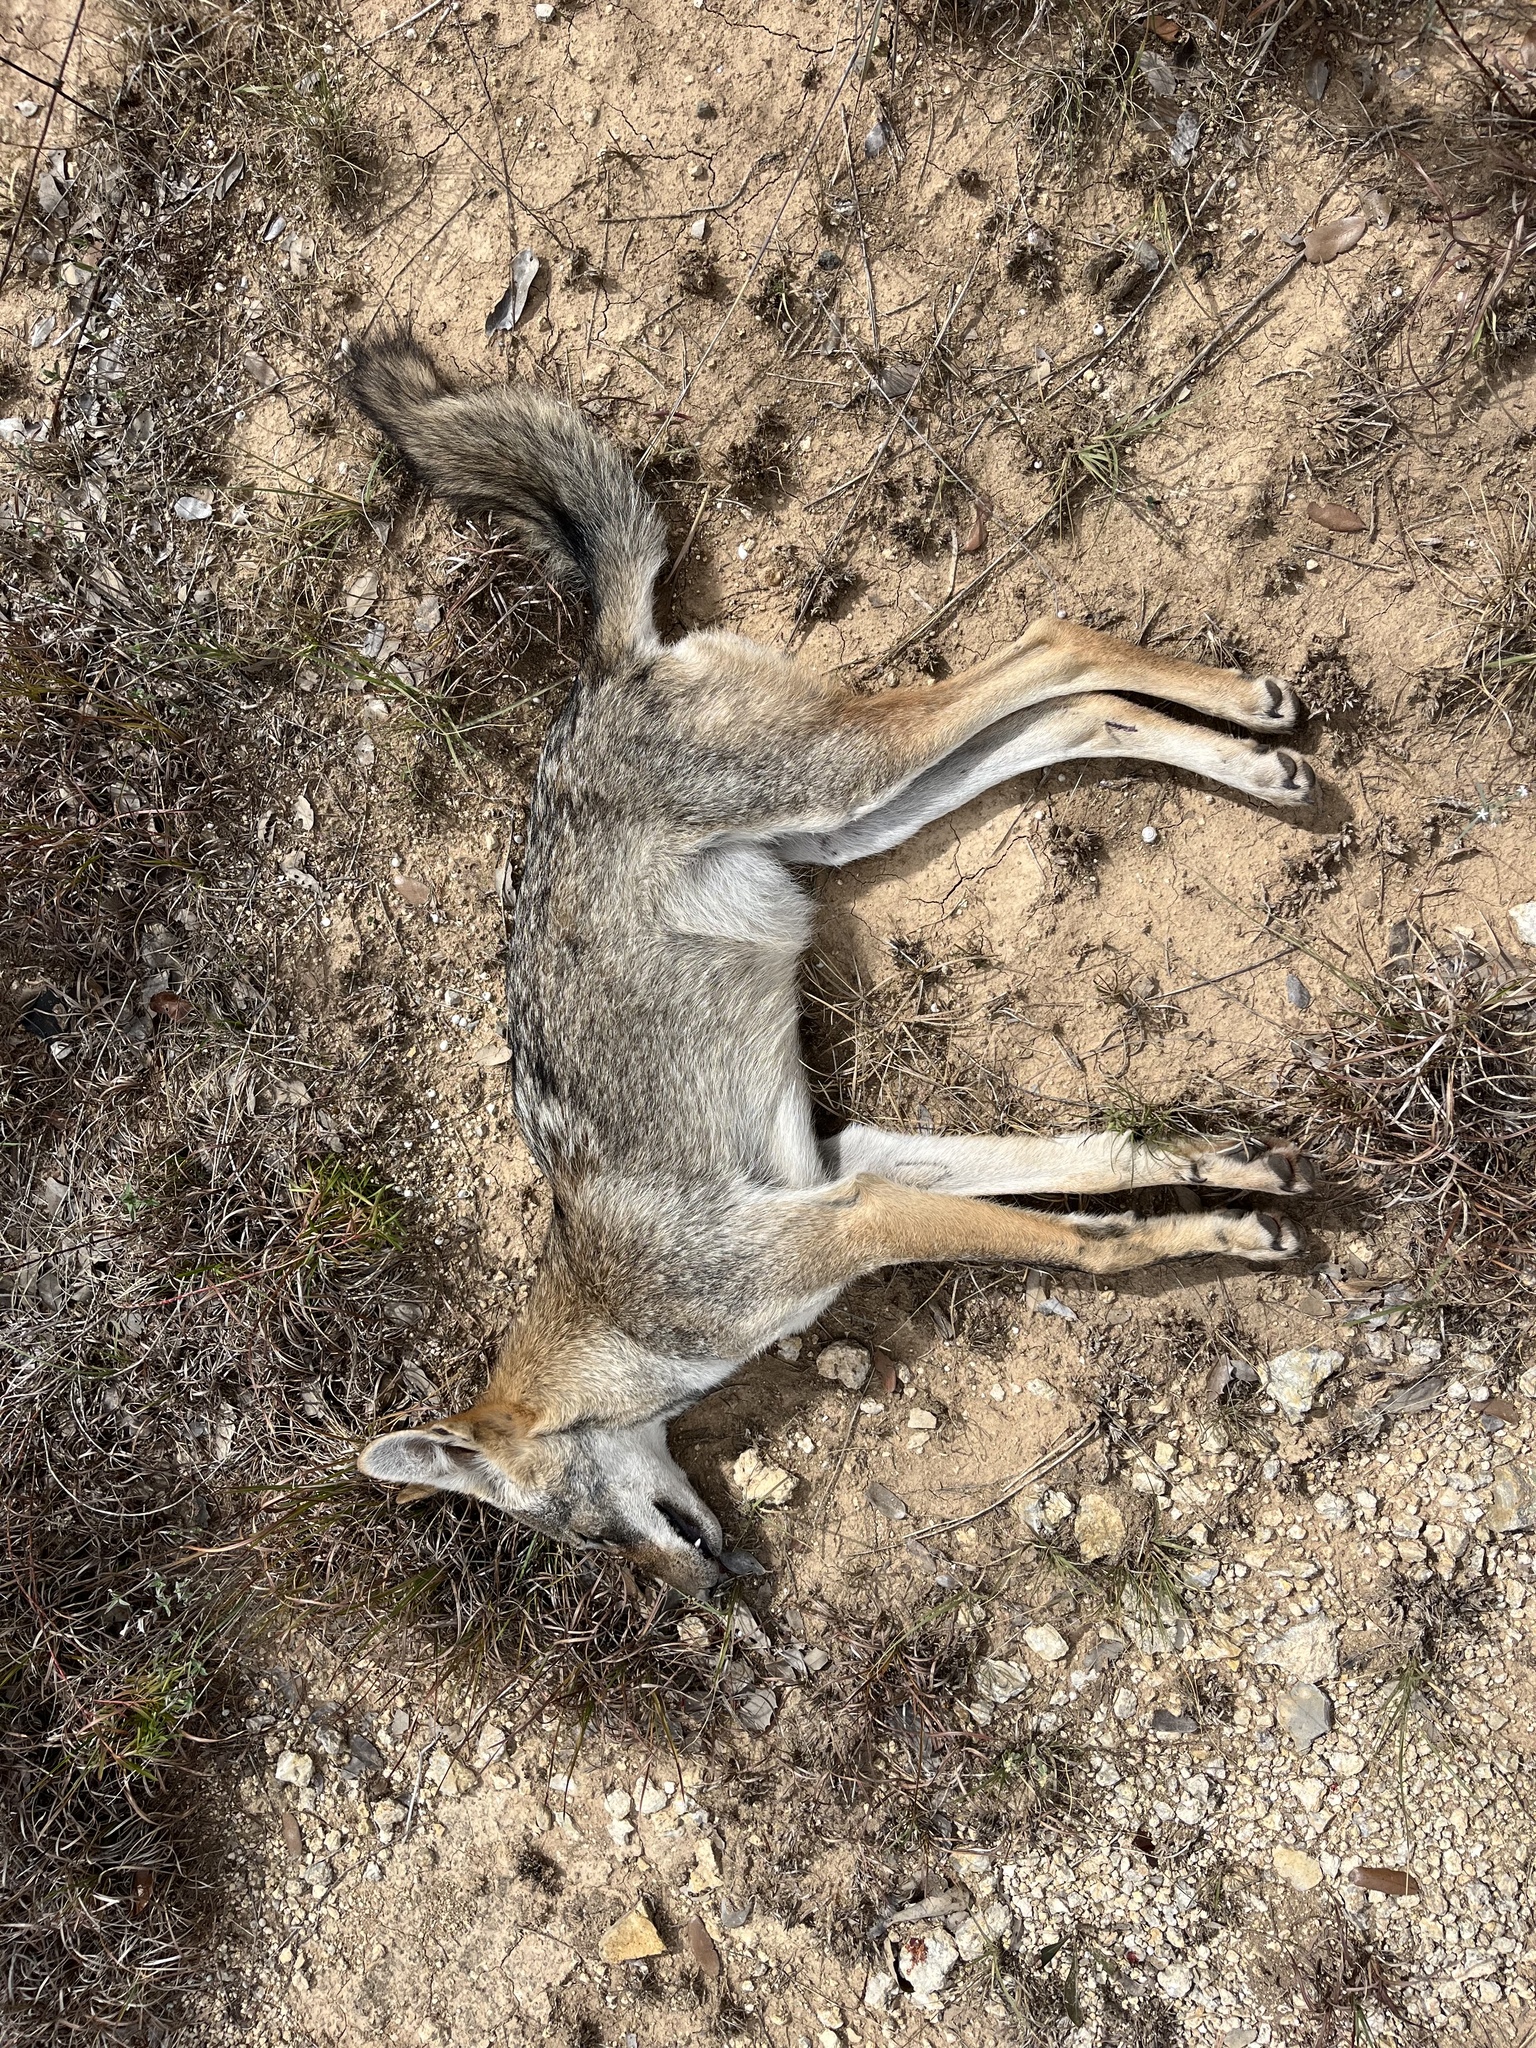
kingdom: Animalia
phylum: Chordata
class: Mammalia
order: Carnivora
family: Canidae
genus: Canis
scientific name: Canis latrans
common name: Coyote
